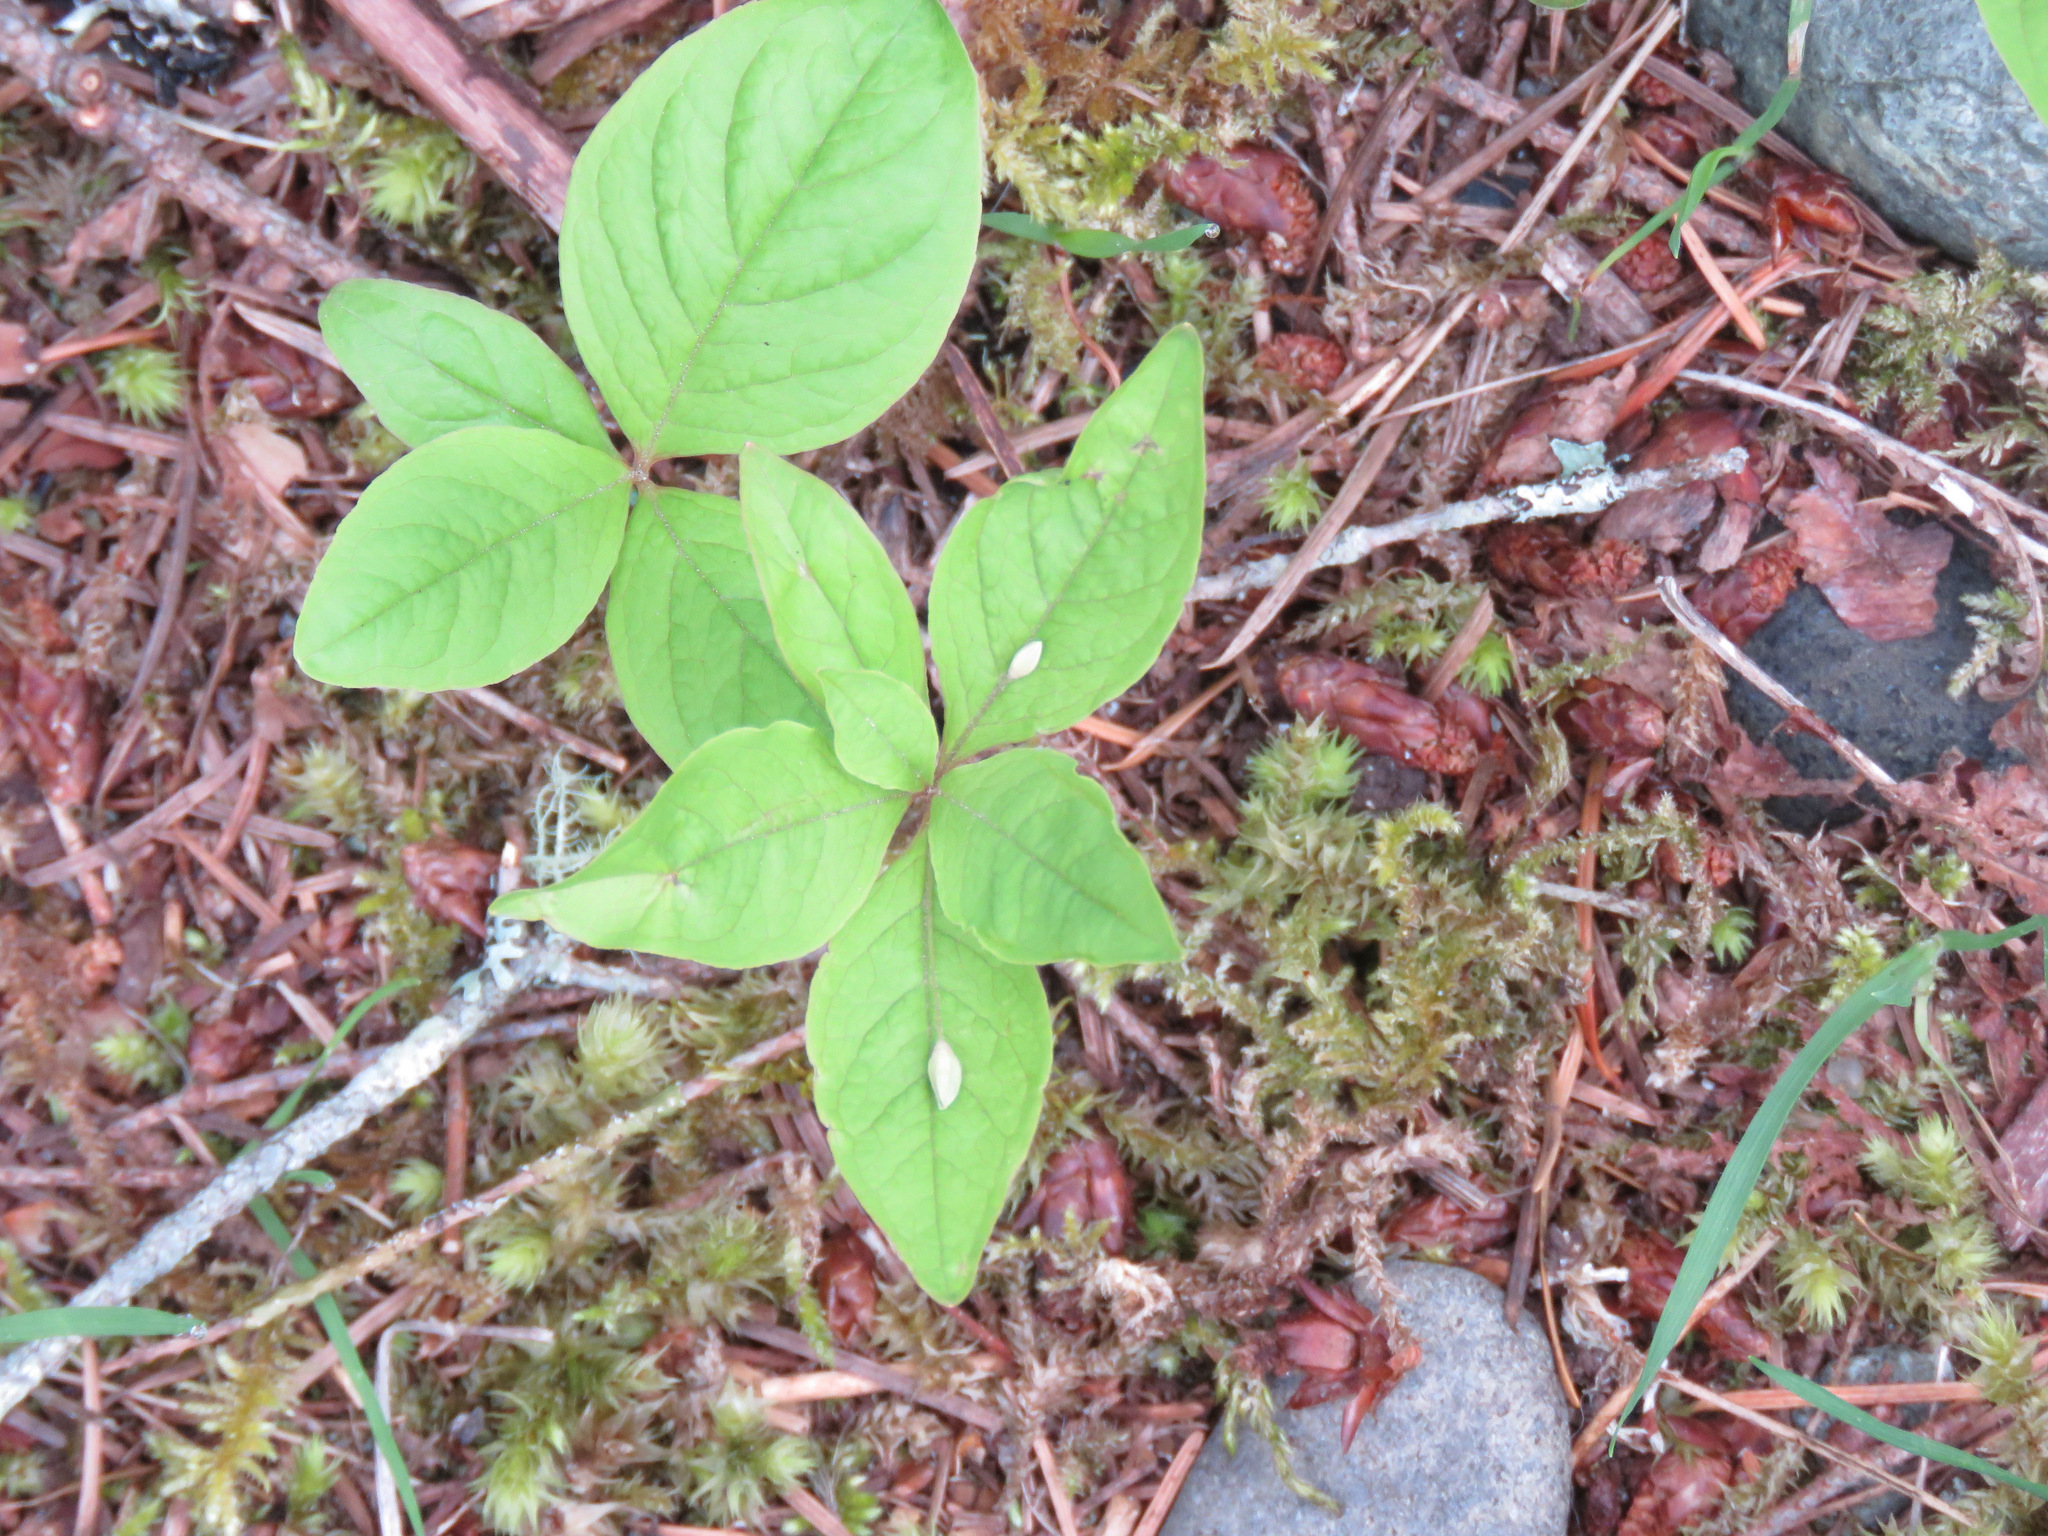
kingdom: Plantae
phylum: Tracheophyta
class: Magnoliopsida
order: Ericales
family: Primulaceae
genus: Lysimachia
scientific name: Lysimachia latifolia
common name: Pacific starflower
